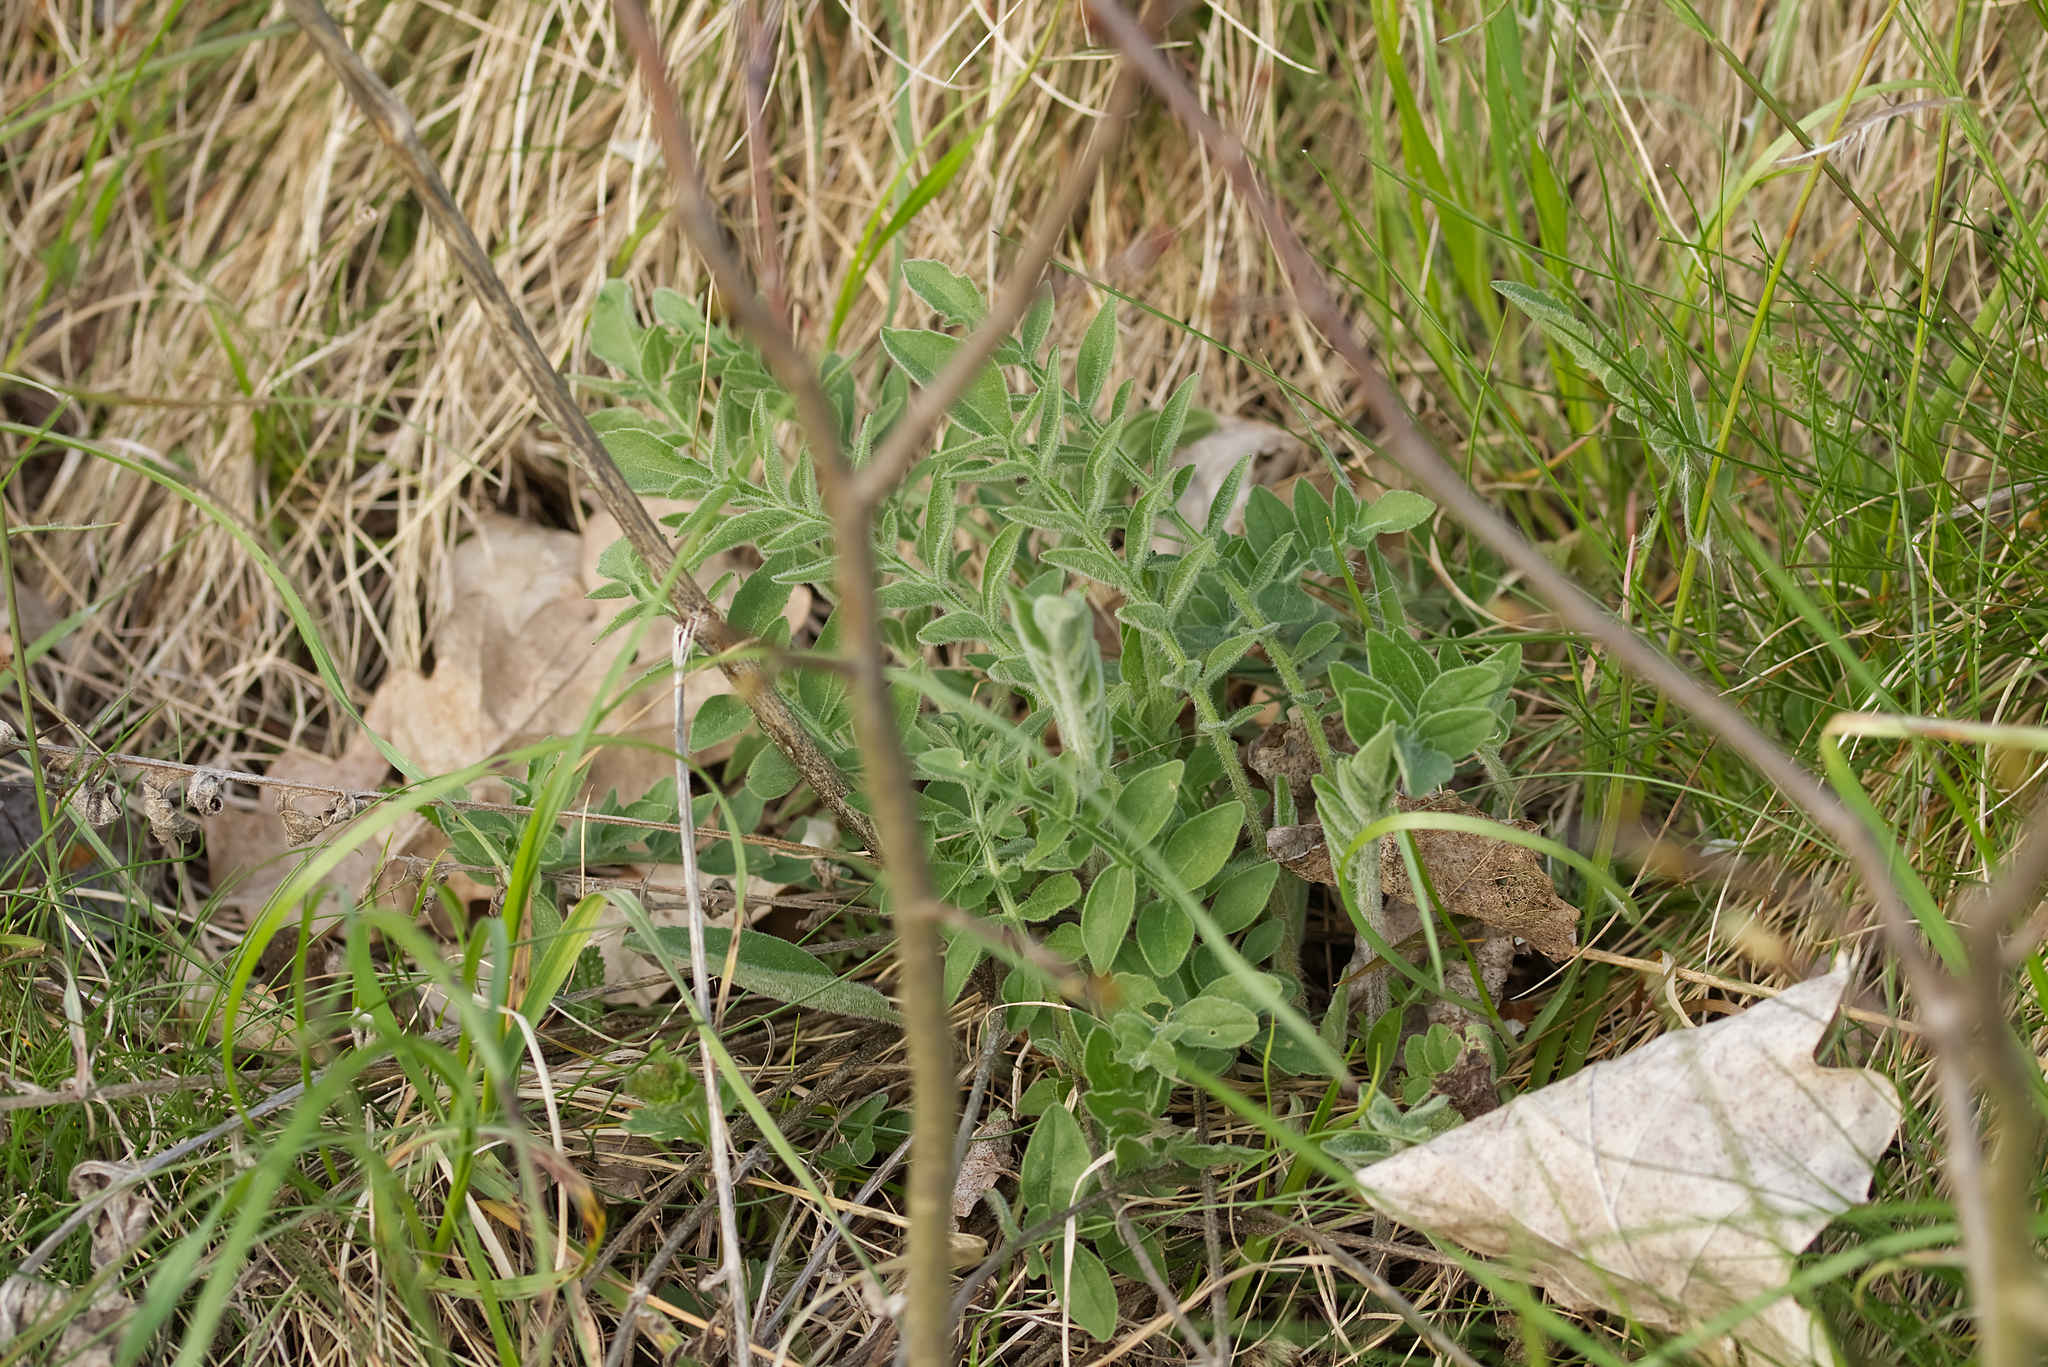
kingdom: Plantae
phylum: Tracheophyta
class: Magnoliopsida
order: Asterales
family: Asteraceae
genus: Centaurea
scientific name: Centaurea scabiosa
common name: Greater knapweed
